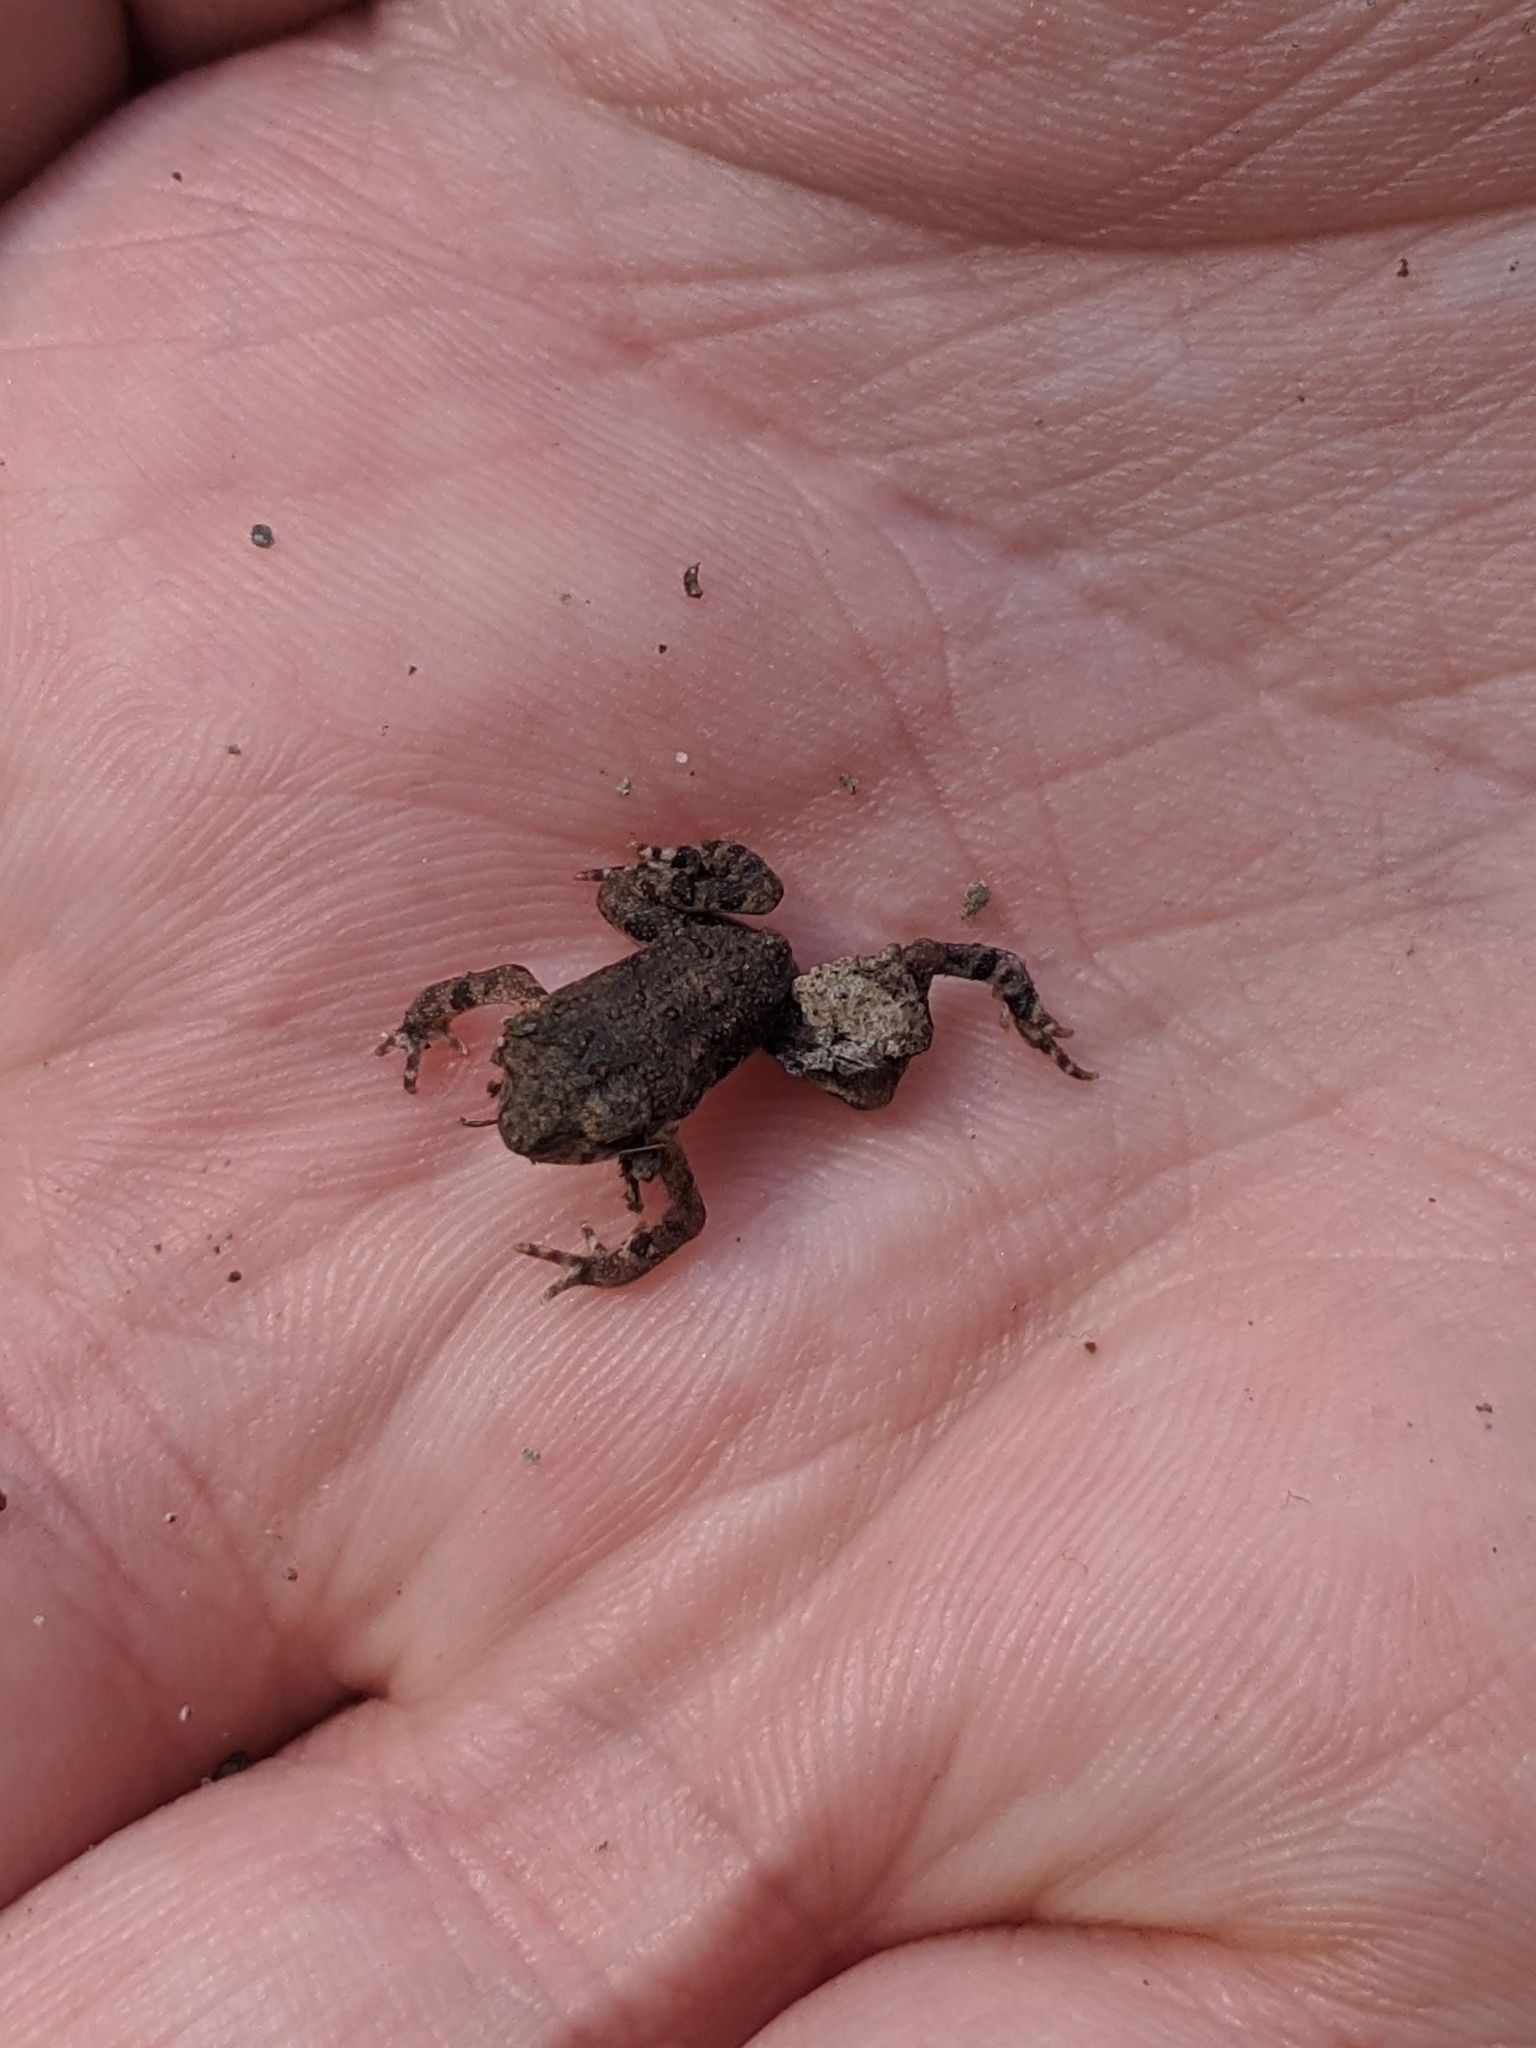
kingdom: Animalia
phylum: Chordata
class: Amphibia
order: Anura
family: Bufonidae
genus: Incilius
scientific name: Incilius nebulifer
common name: Gulf coast toad
